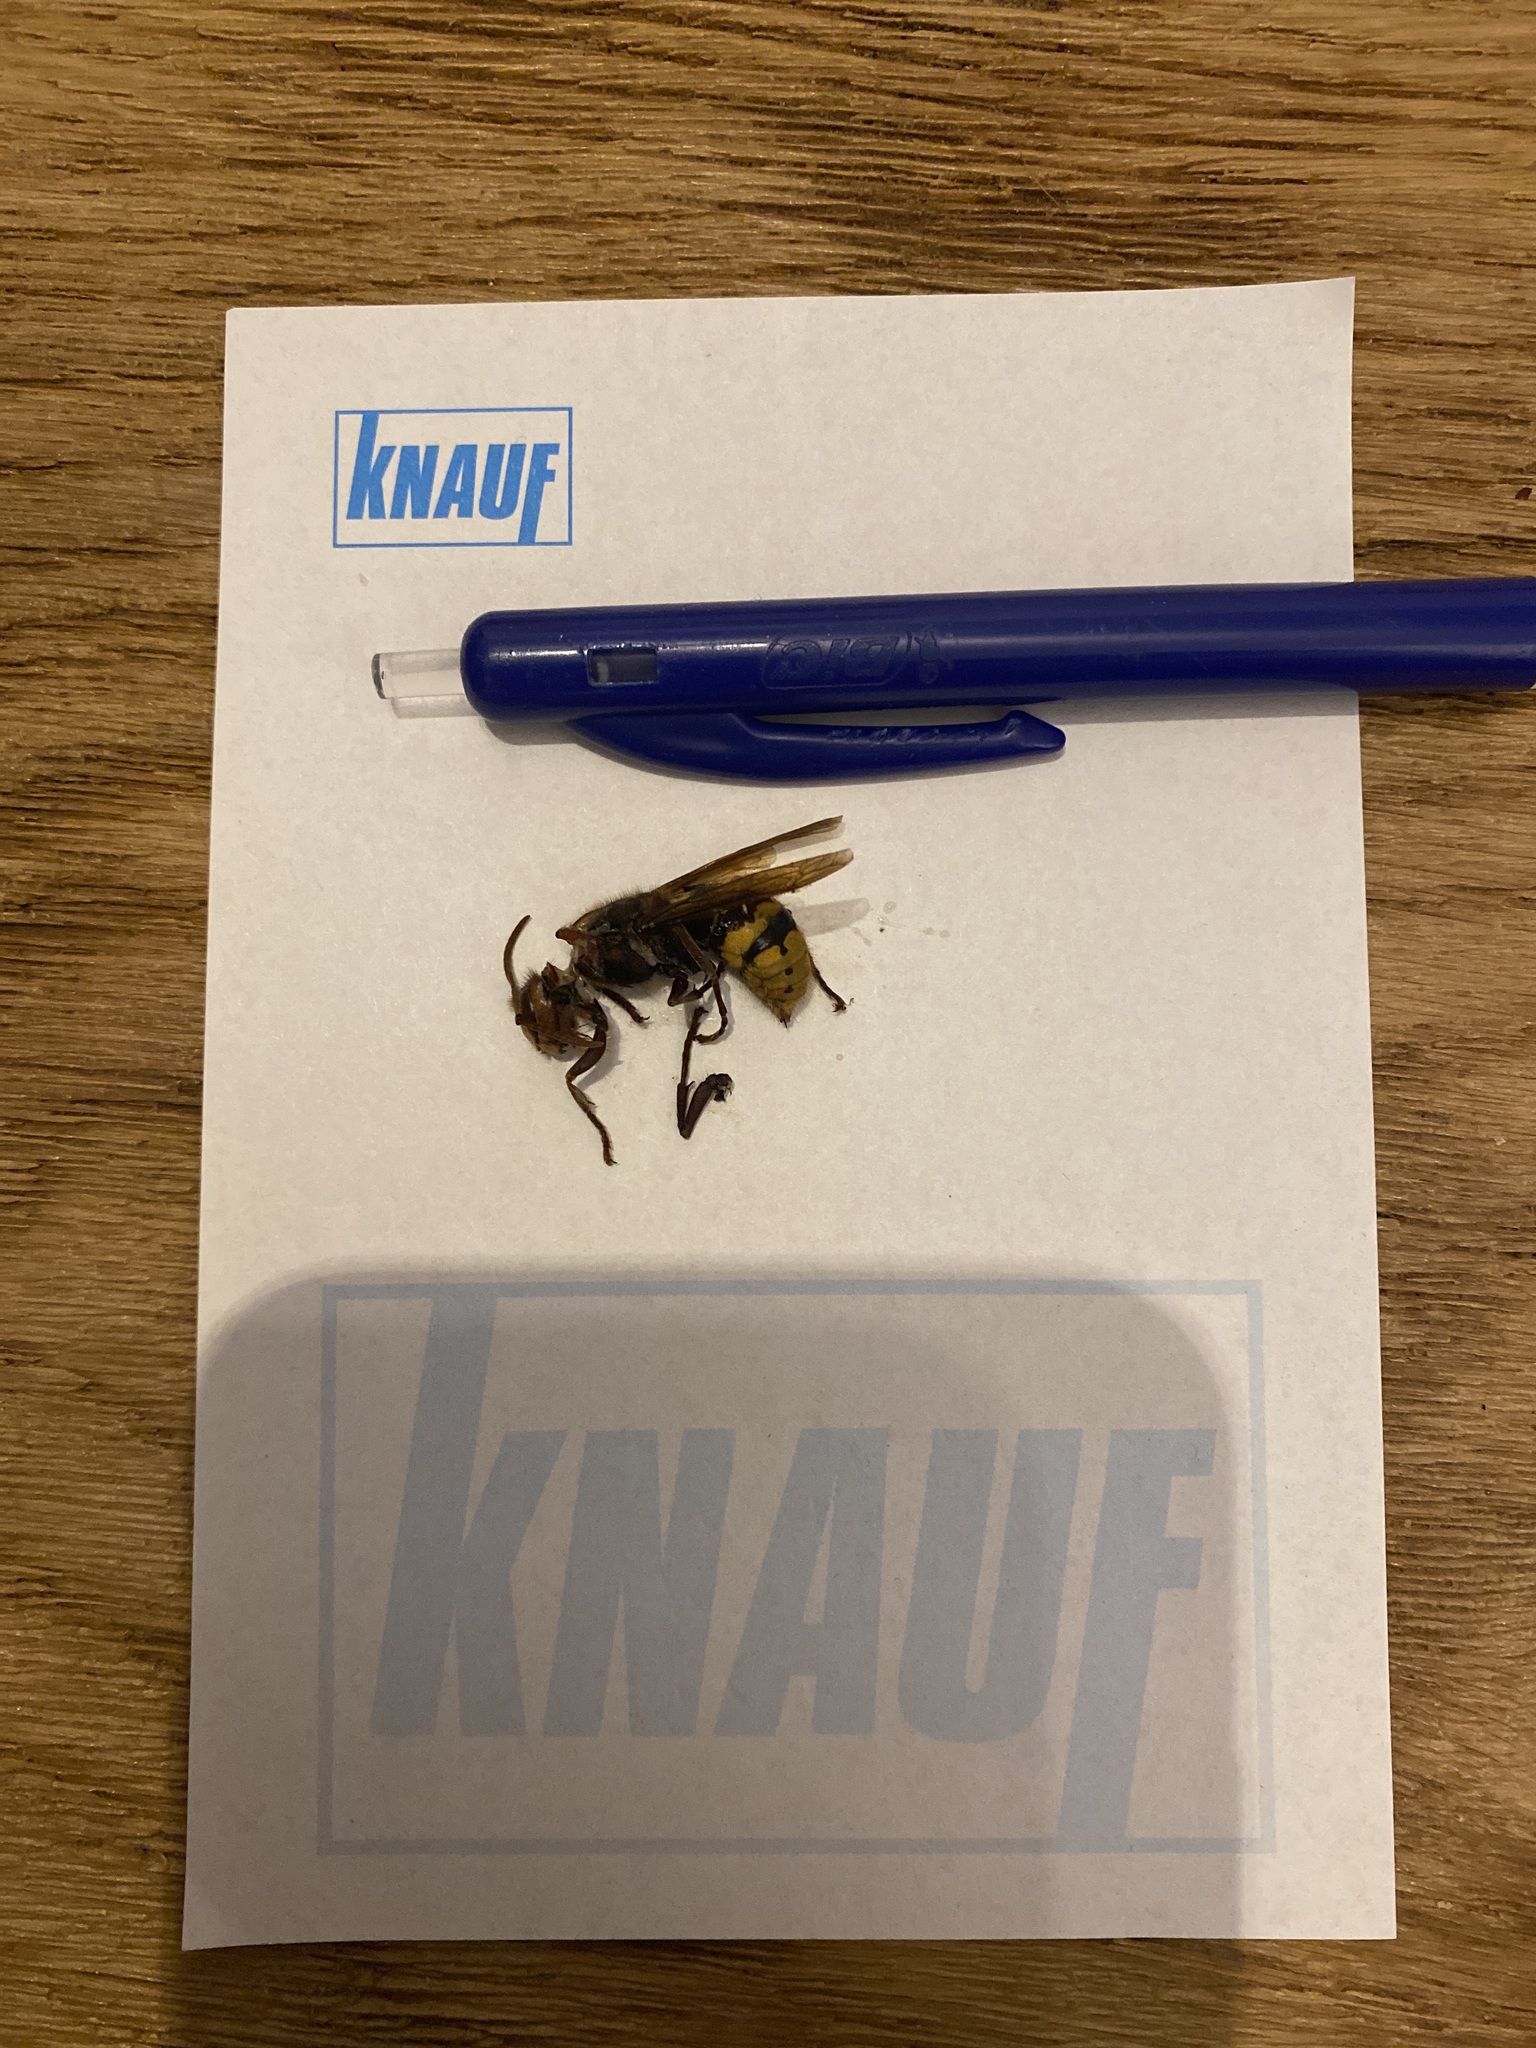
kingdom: Animalia
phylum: Arthropoda
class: Insecta
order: Hymenoptera
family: Vespidae
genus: Vespa
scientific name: Vespa crabro
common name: Hornet
